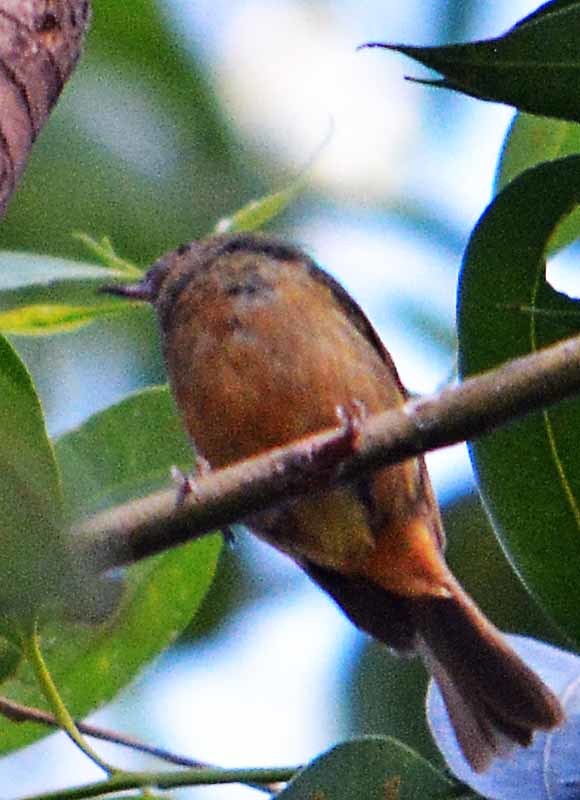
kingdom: Animalia
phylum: Chordata
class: Aves
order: Passeriformes
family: Thraupidae
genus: Diglossa
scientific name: Diglossa baritula
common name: Cinnamon-bellied flowerpiercer
